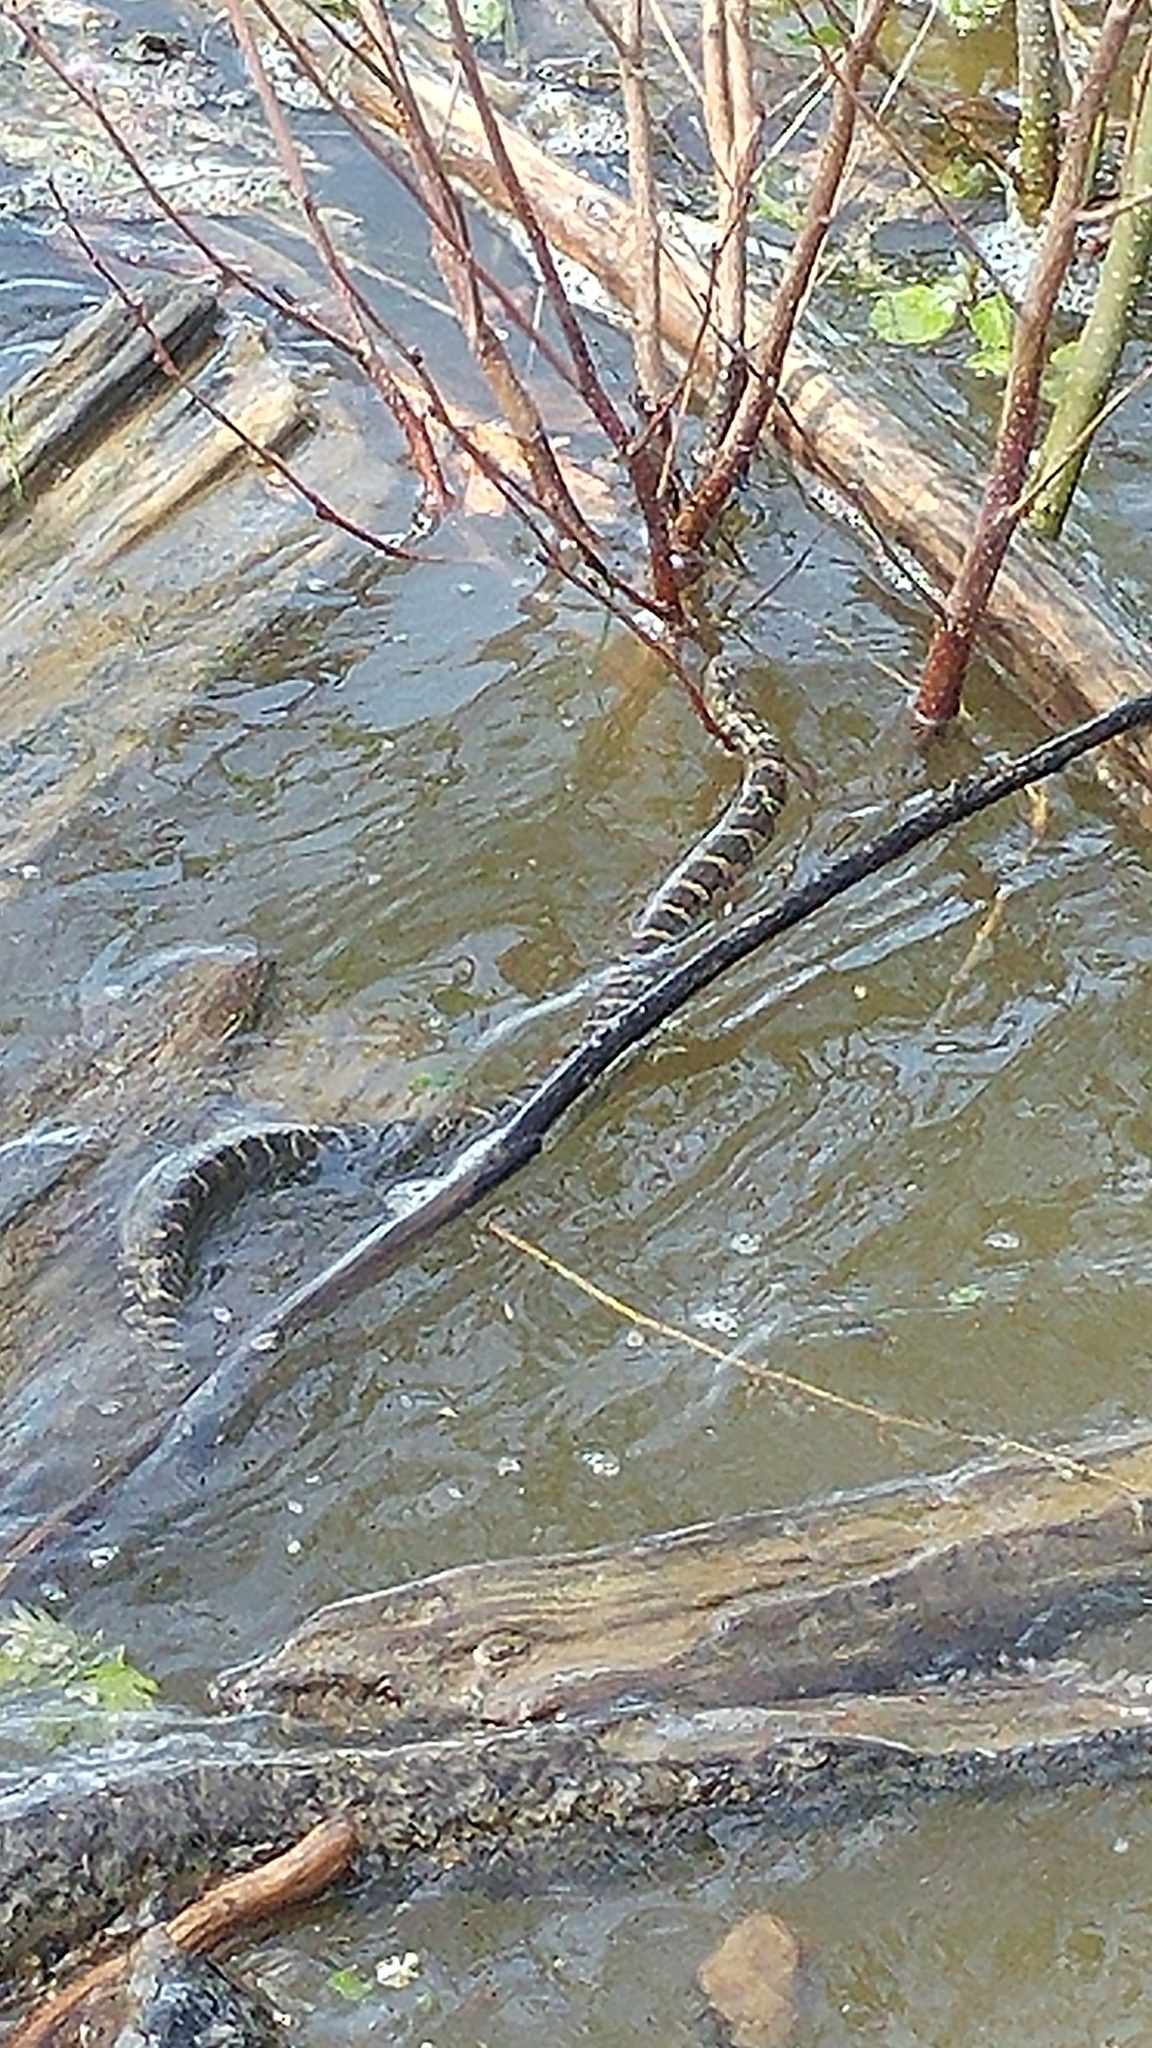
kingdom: Animalia
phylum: Chordata
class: Squamata
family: Colubridae
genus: Nerodia
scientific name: Nerodia sipedon
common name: Northern water snake
